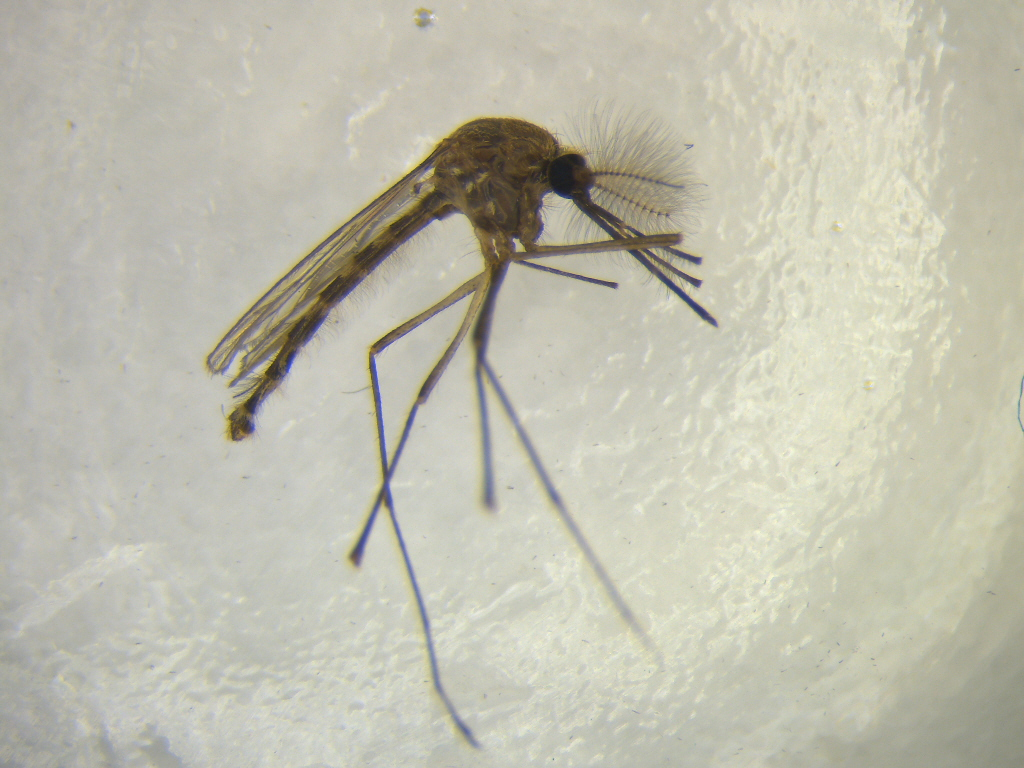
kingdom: Animalia
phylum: Arthropoda
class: Insecta
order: Diptera
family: Culicidae
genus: Culex
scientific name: Culex pervigilans
